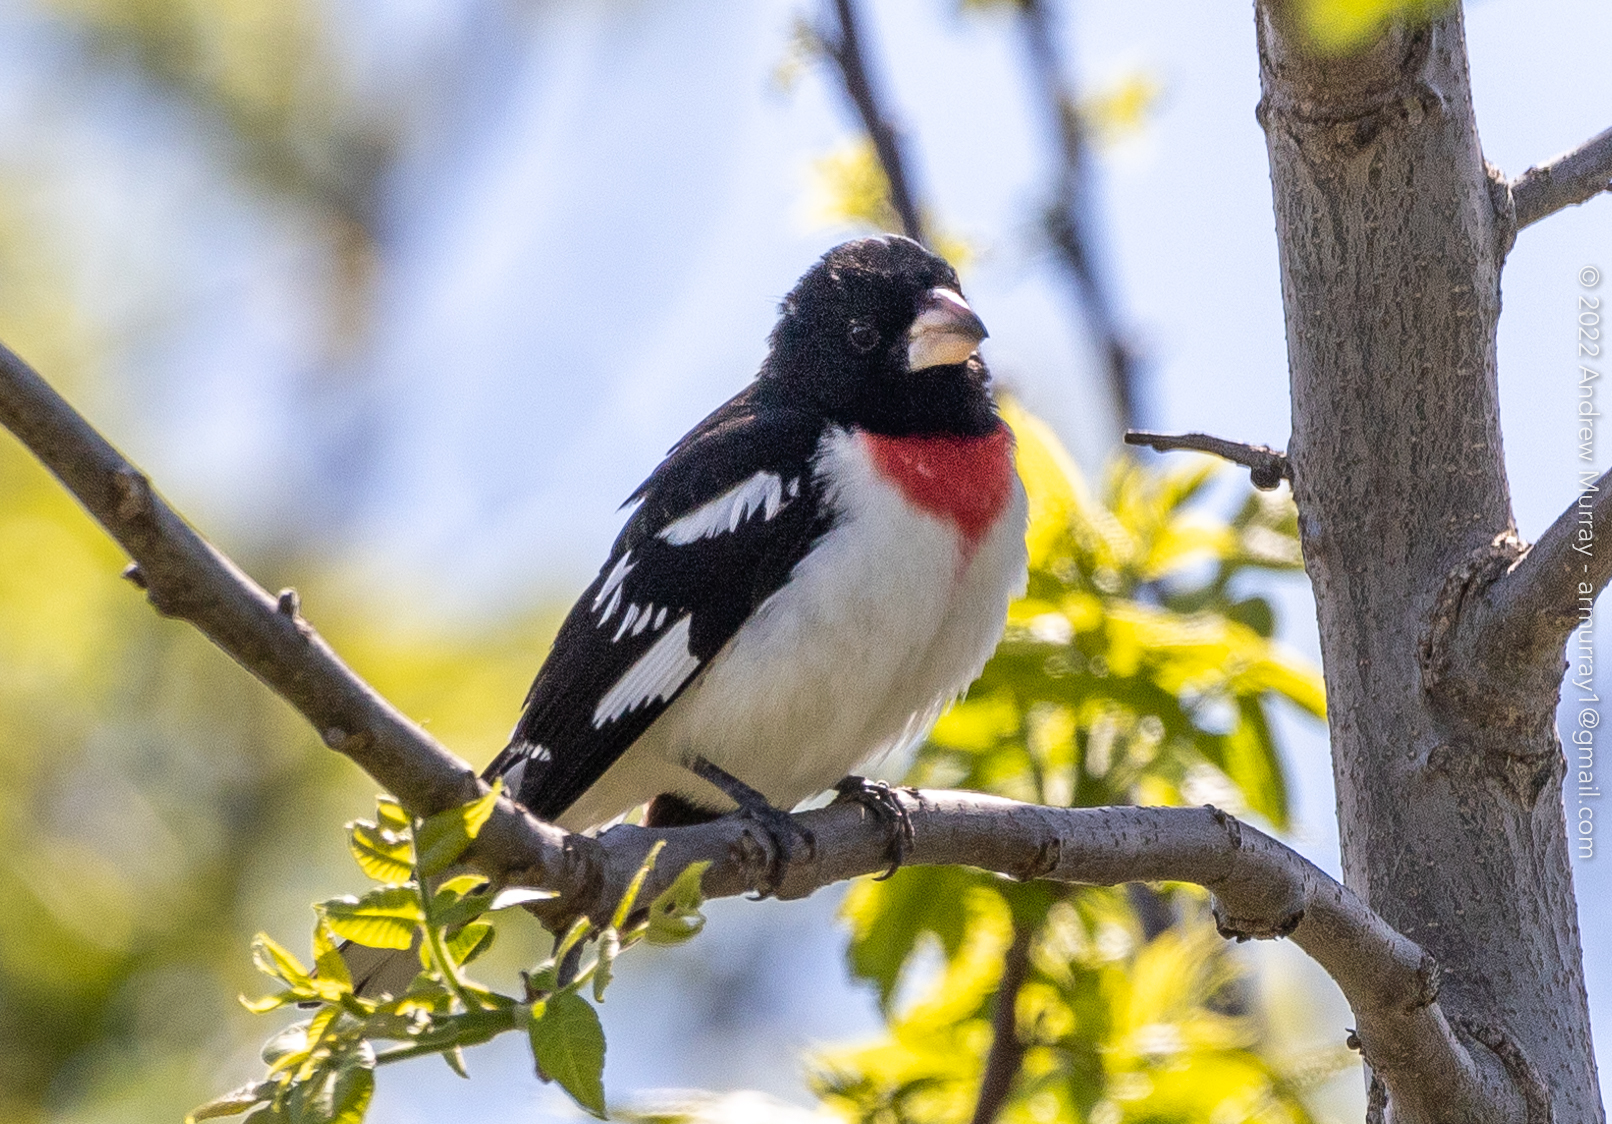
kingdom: Animalia
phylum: Chordata
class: Aves
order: Passeriformes
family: Cardinalidae
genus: Pheucticus
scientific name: Pheucticus ludovicianus
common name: Rose-breasted grosbeak
